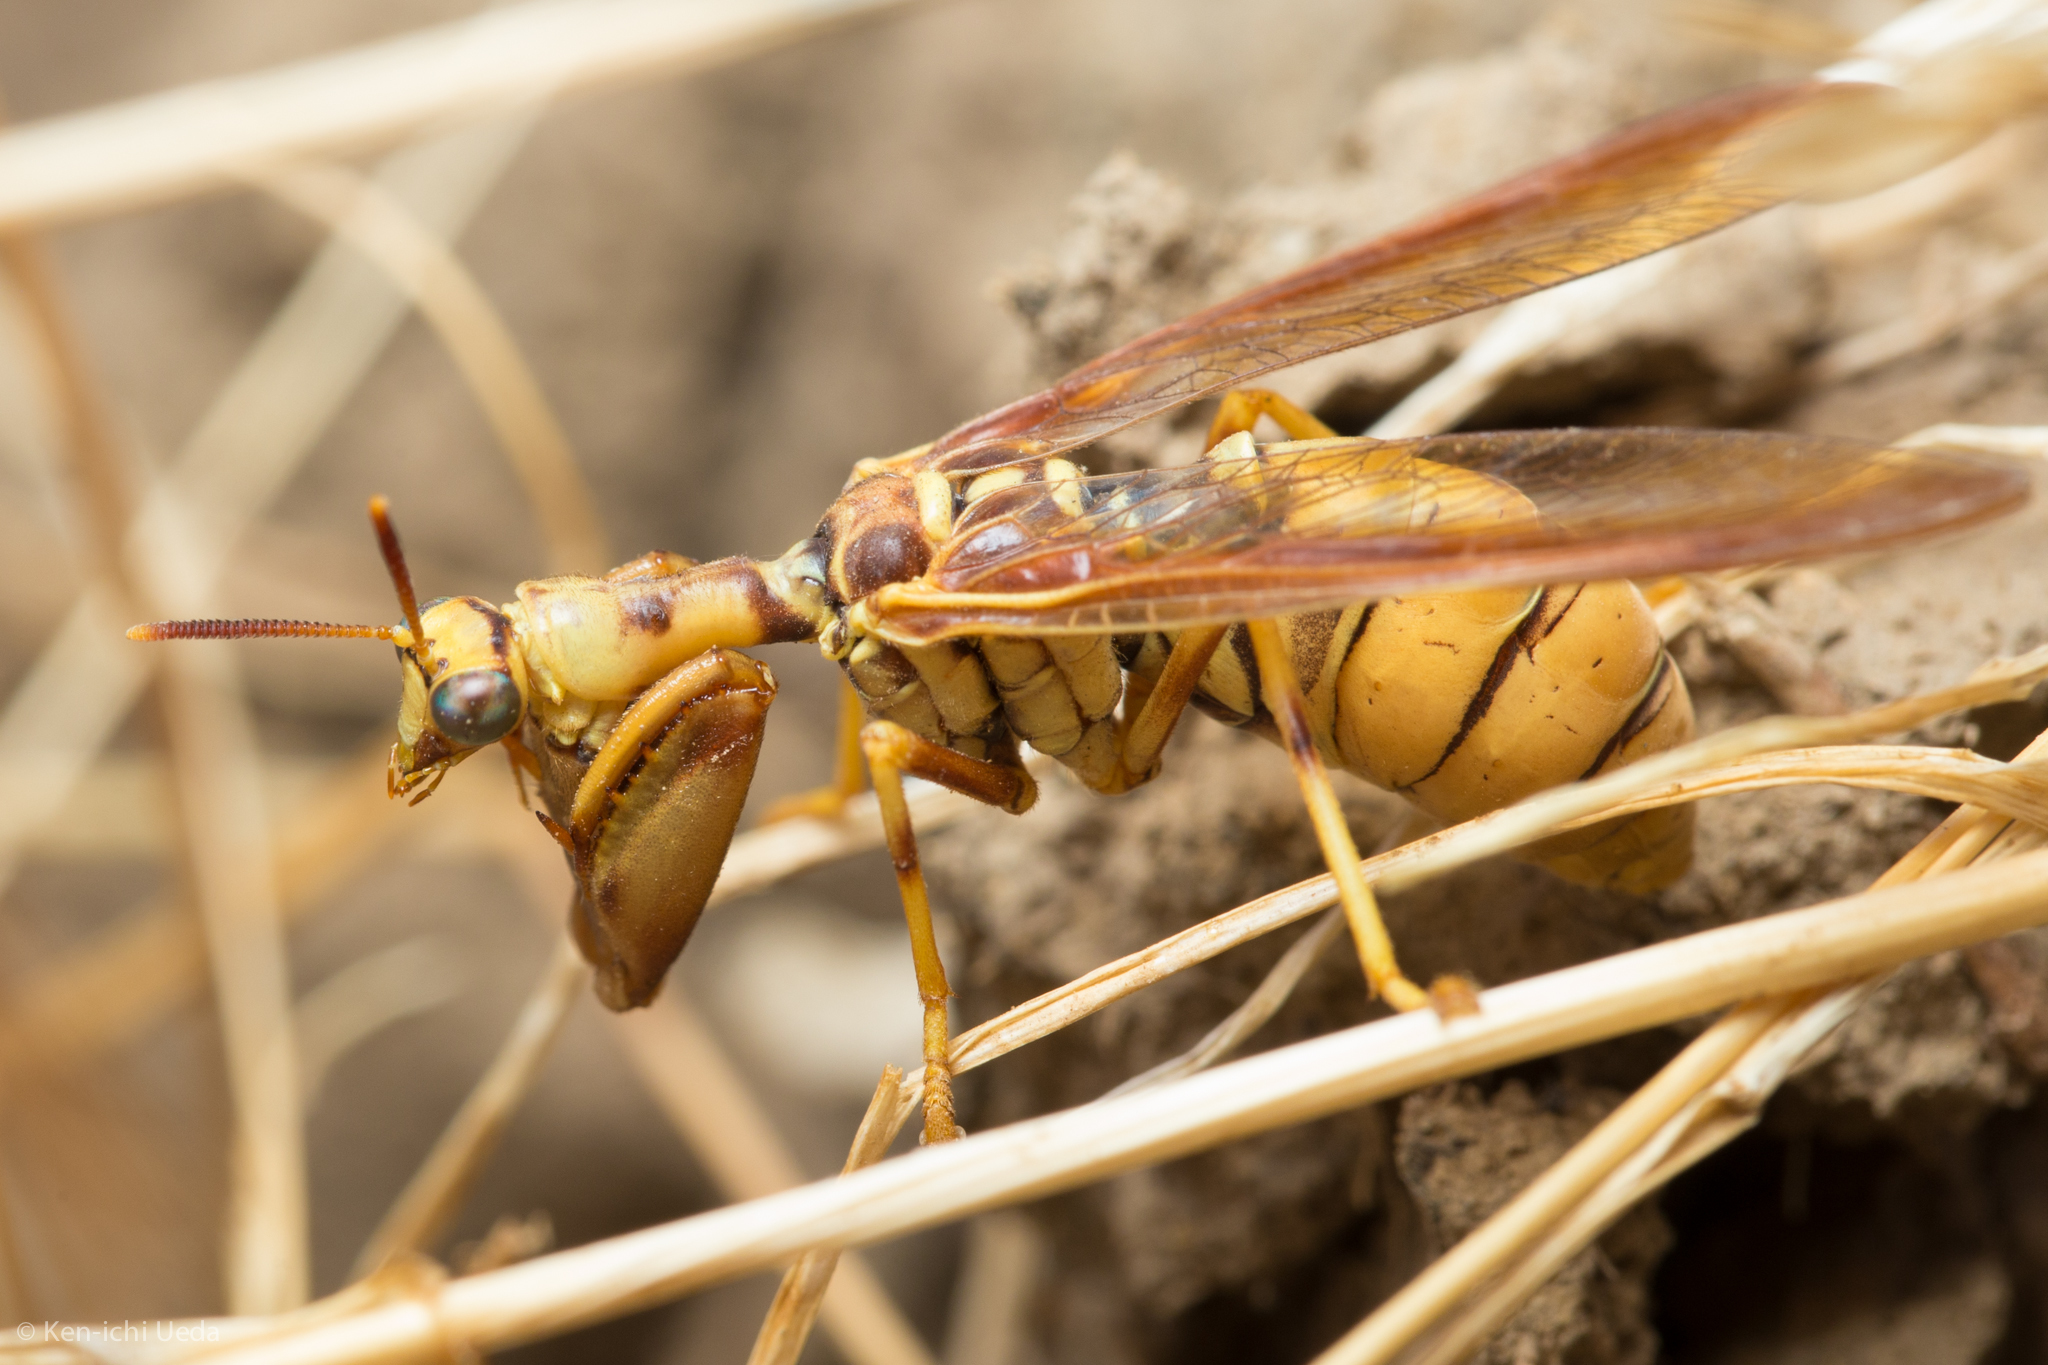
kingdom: Animalia
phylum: Arthropoda
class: Insecta
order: Neuroptera
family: Mantispidae
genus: Climaciella
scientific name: Climaciella brunnea
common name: Brown wasp mantidfly
